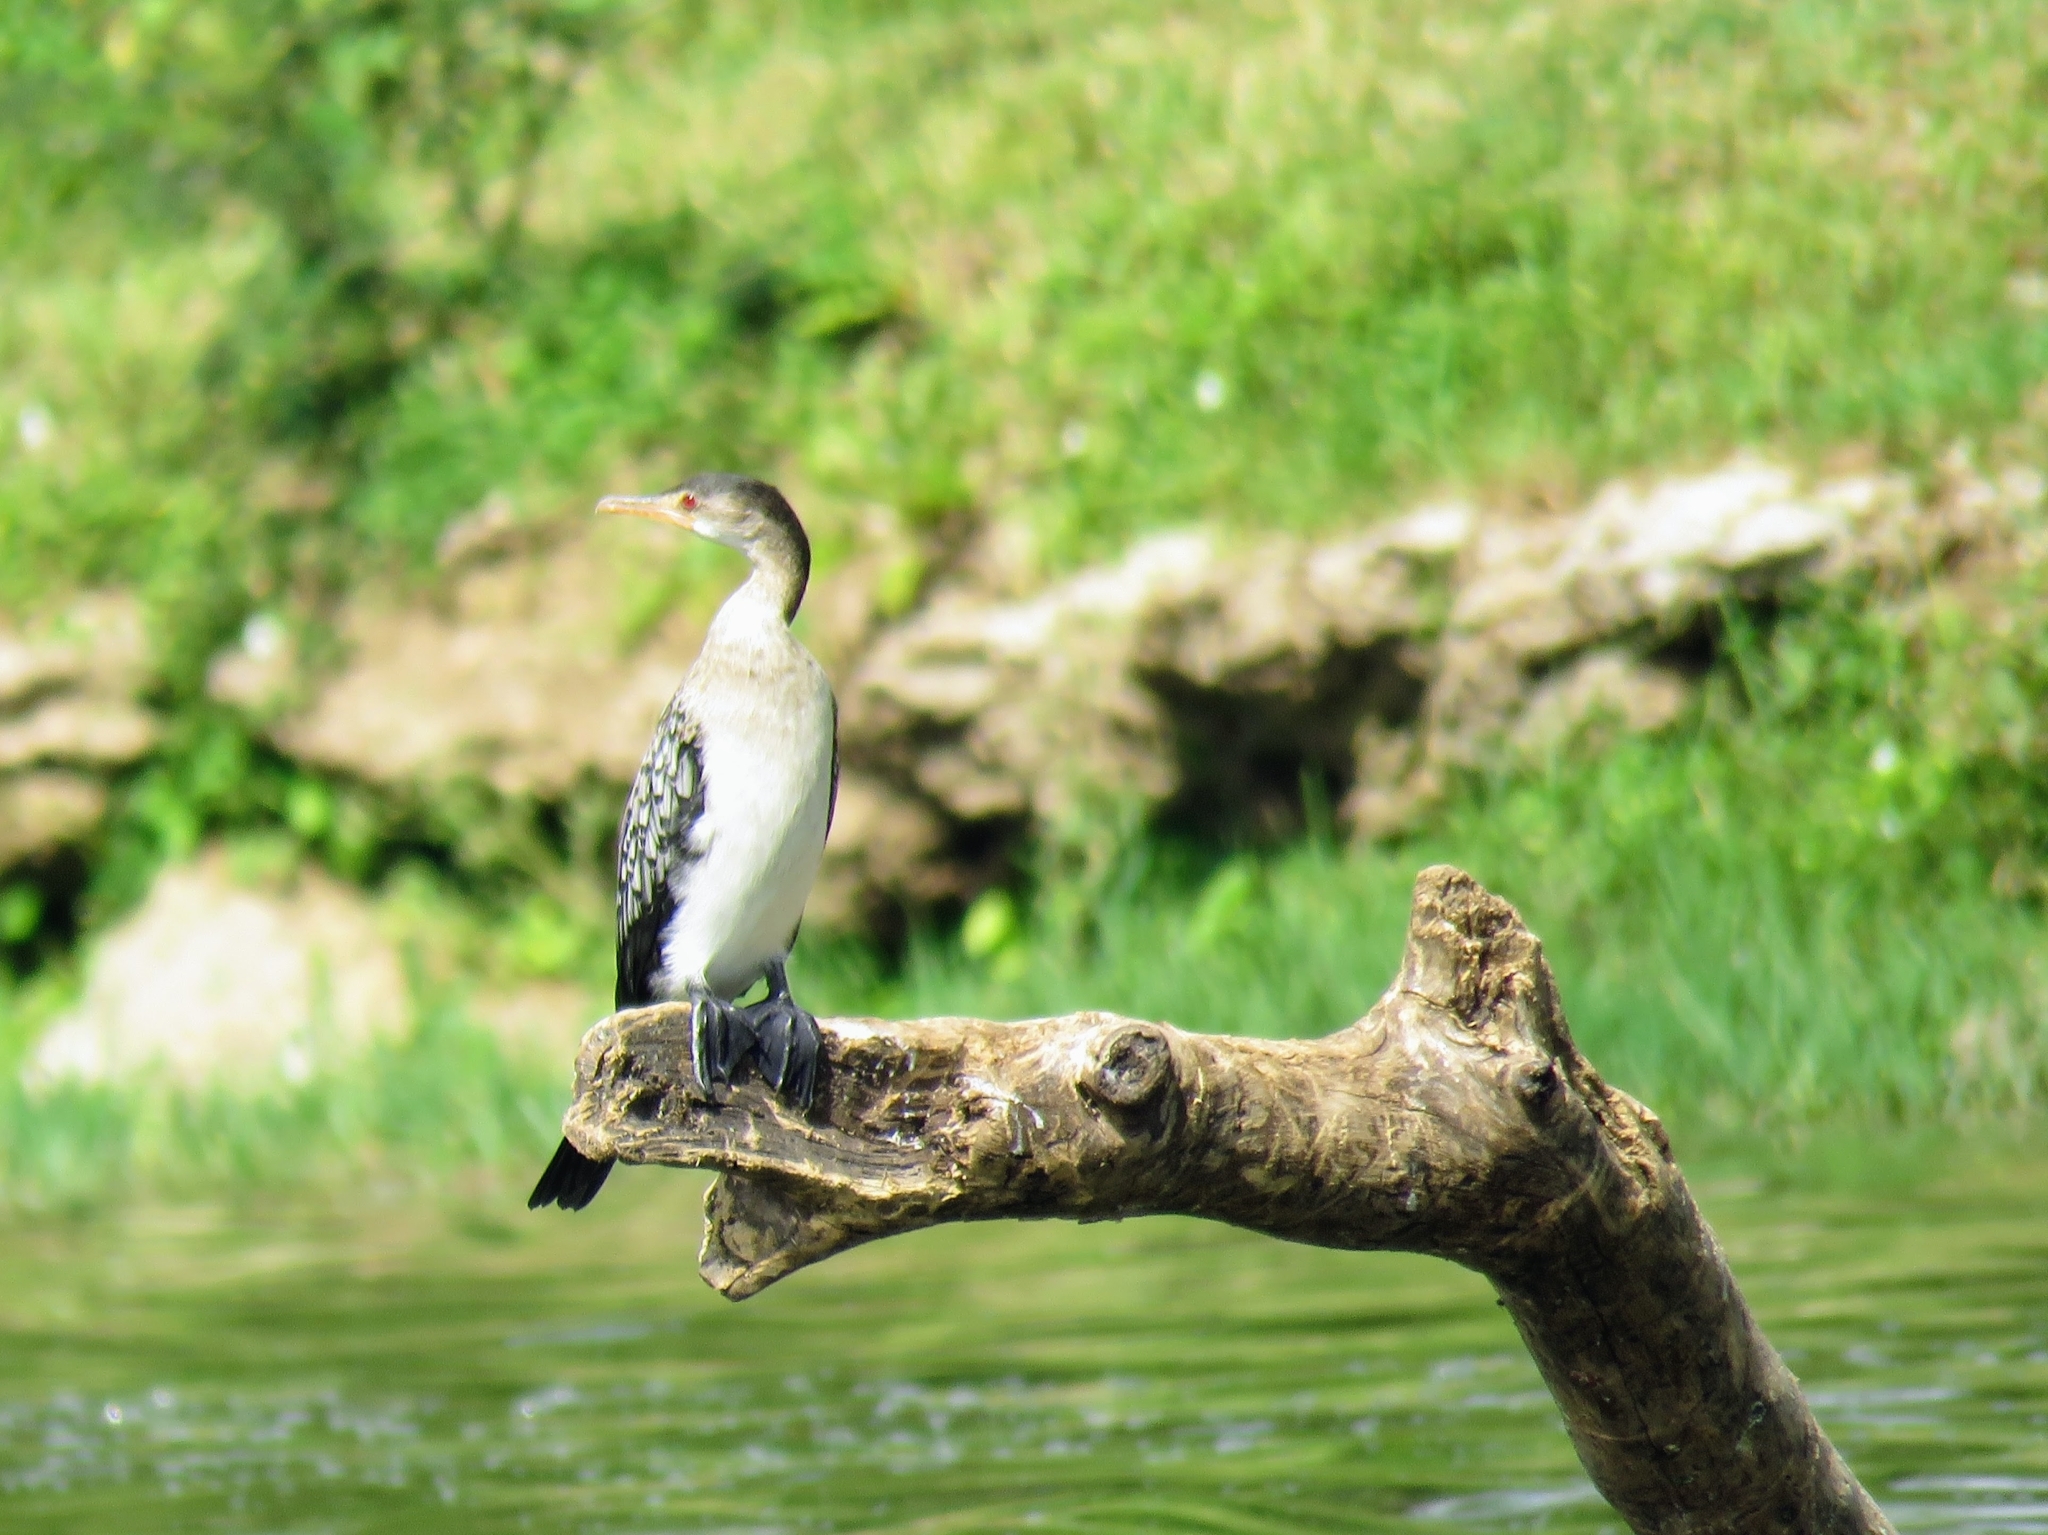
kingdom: Animalia
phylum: Chordata
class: Aves
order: Suliformes
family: Phalacrocoracidae
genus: Microcarbo
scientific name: Microcarbo africanus
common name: Long-tailed cormorant
